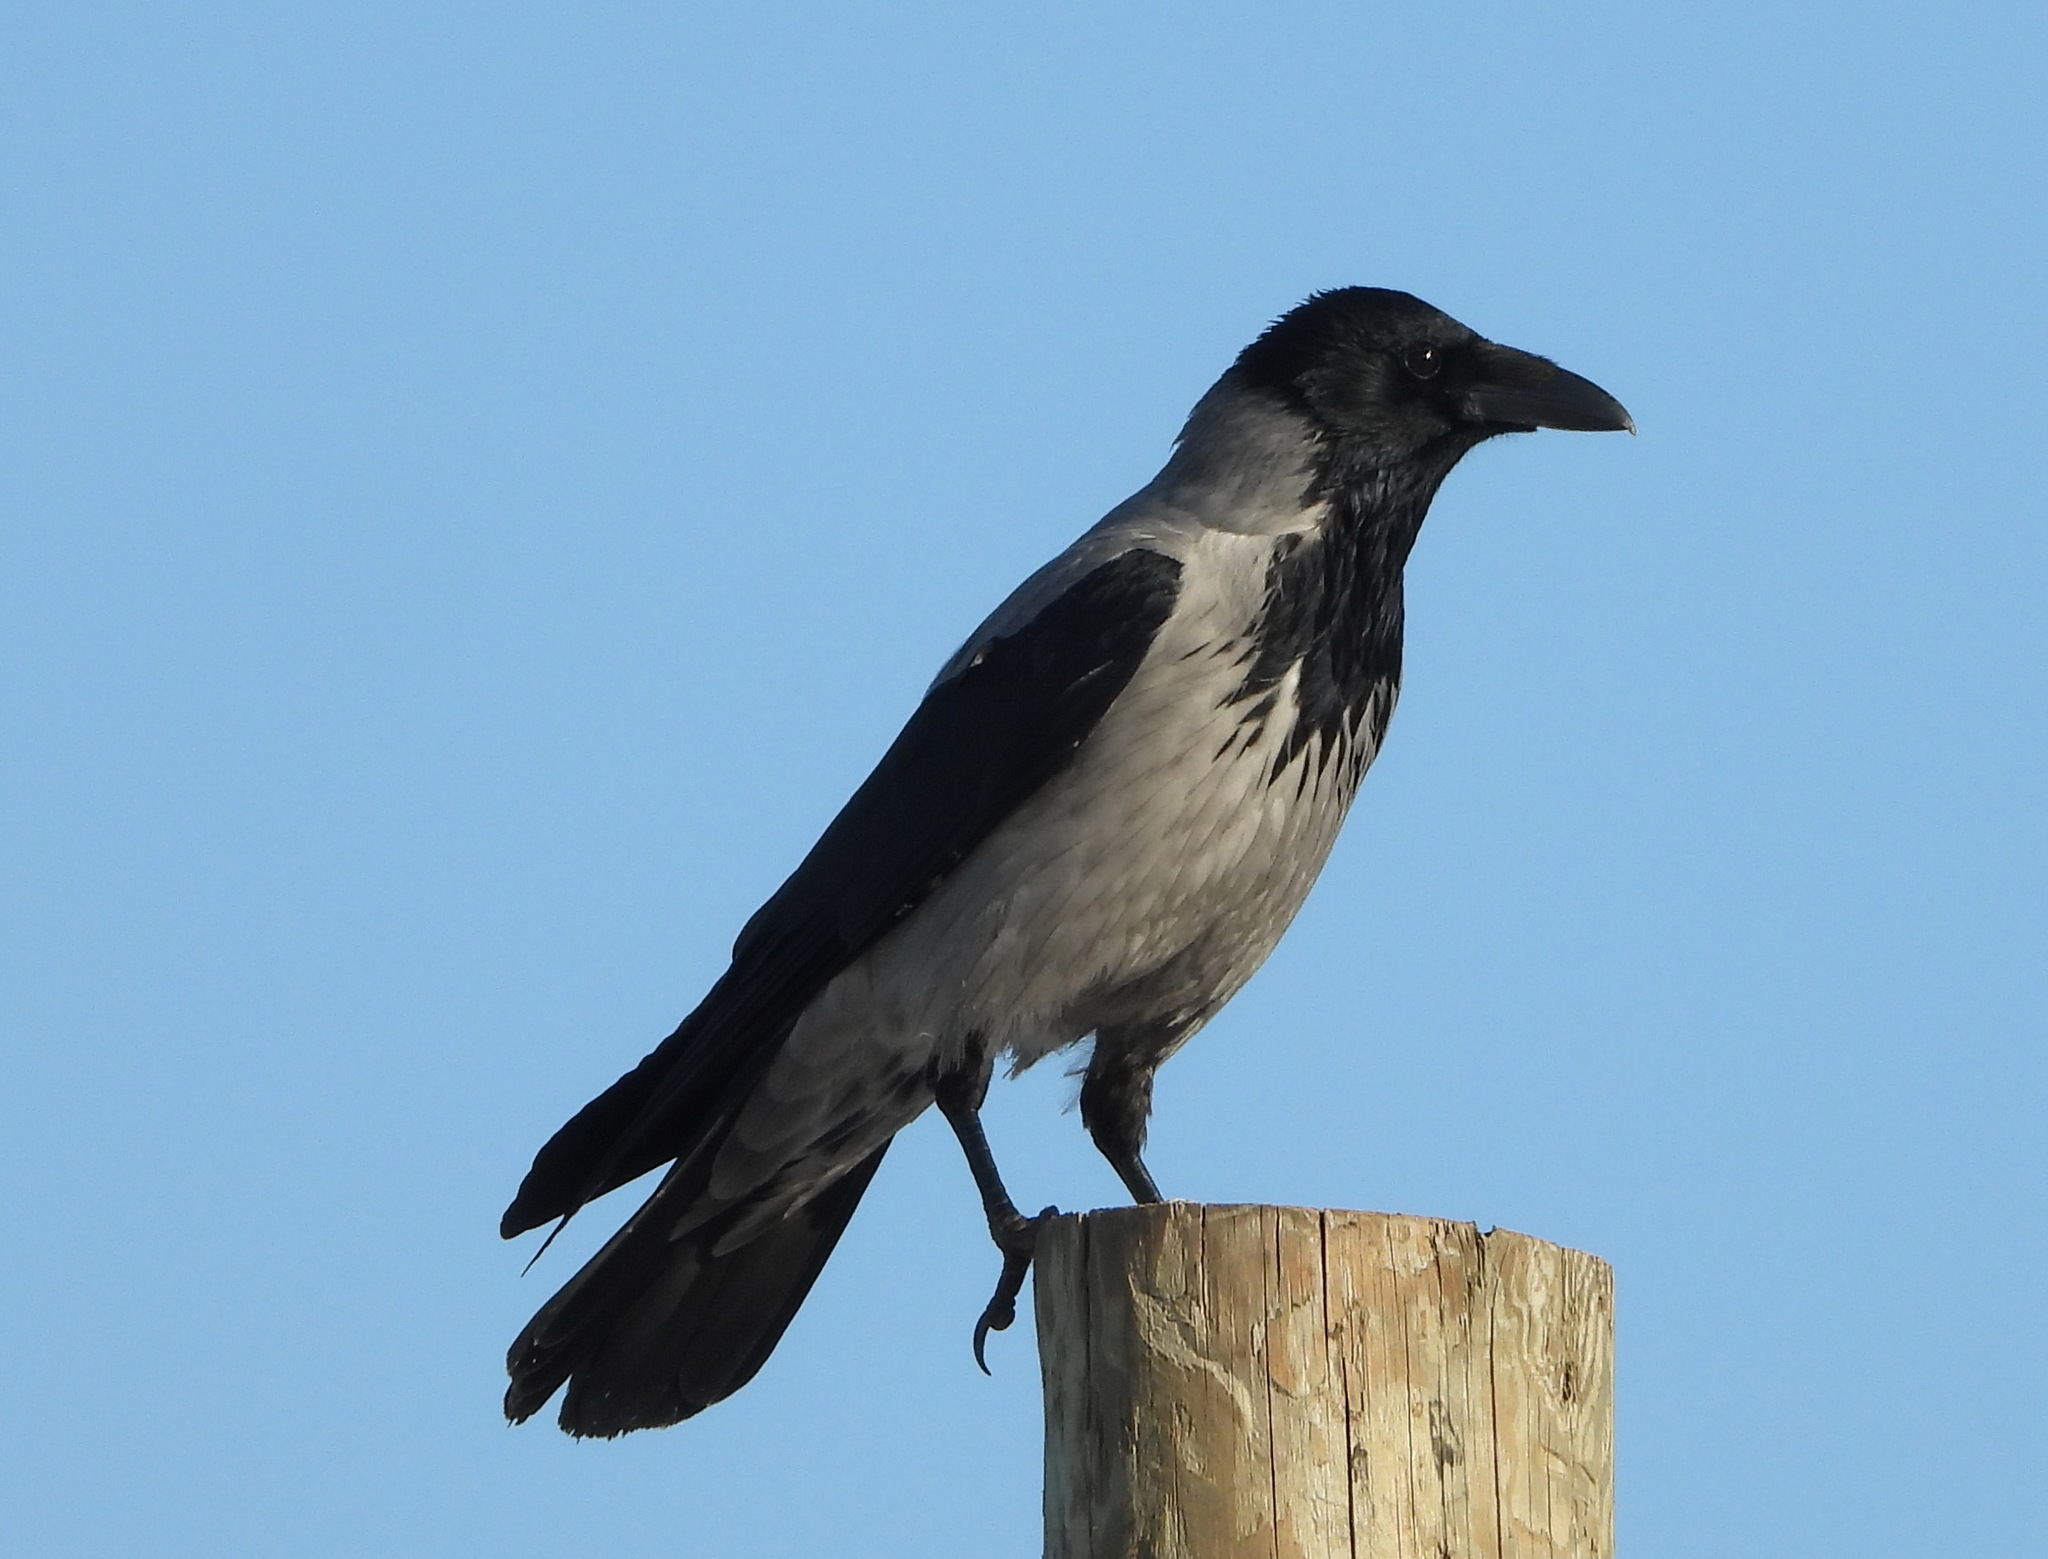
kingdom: Animalia
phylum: Chordata
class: Aves
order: Passeriformes
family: Corvidae
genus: Corvus
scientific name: Corvus cornix
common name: Hooded crow
